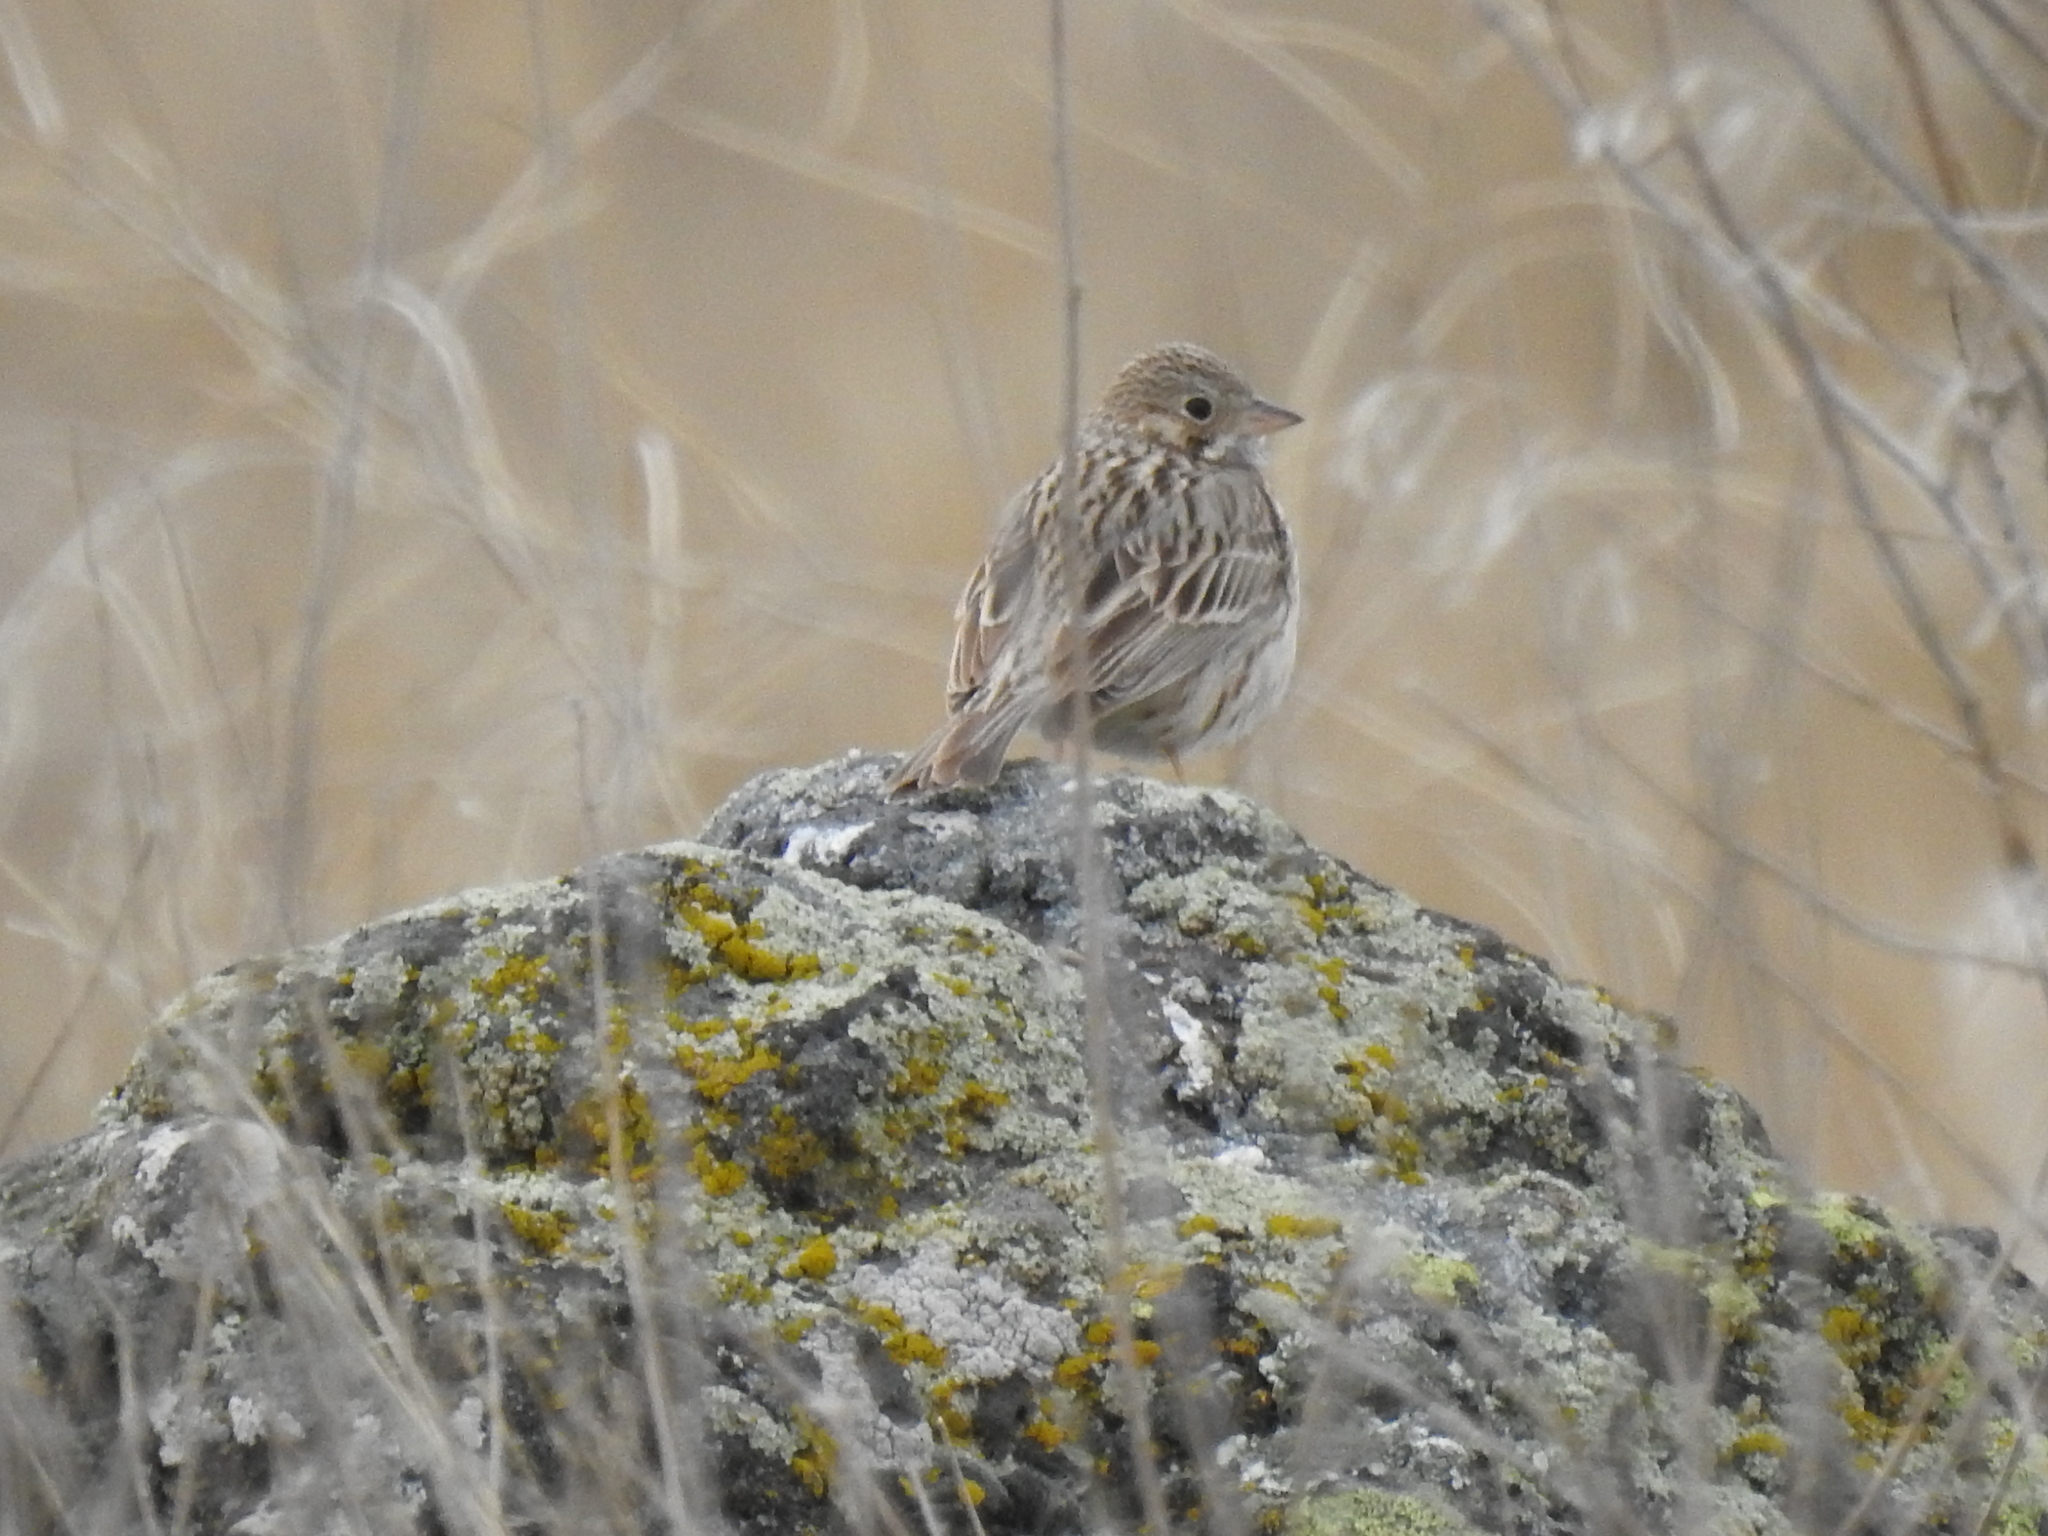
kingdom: Animalia
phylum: Chordata
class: Aves
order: Passeriformes
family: Passerellidae
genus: Pooecetes
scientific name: Pooecetes gramineus
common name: Vesper sparrow
